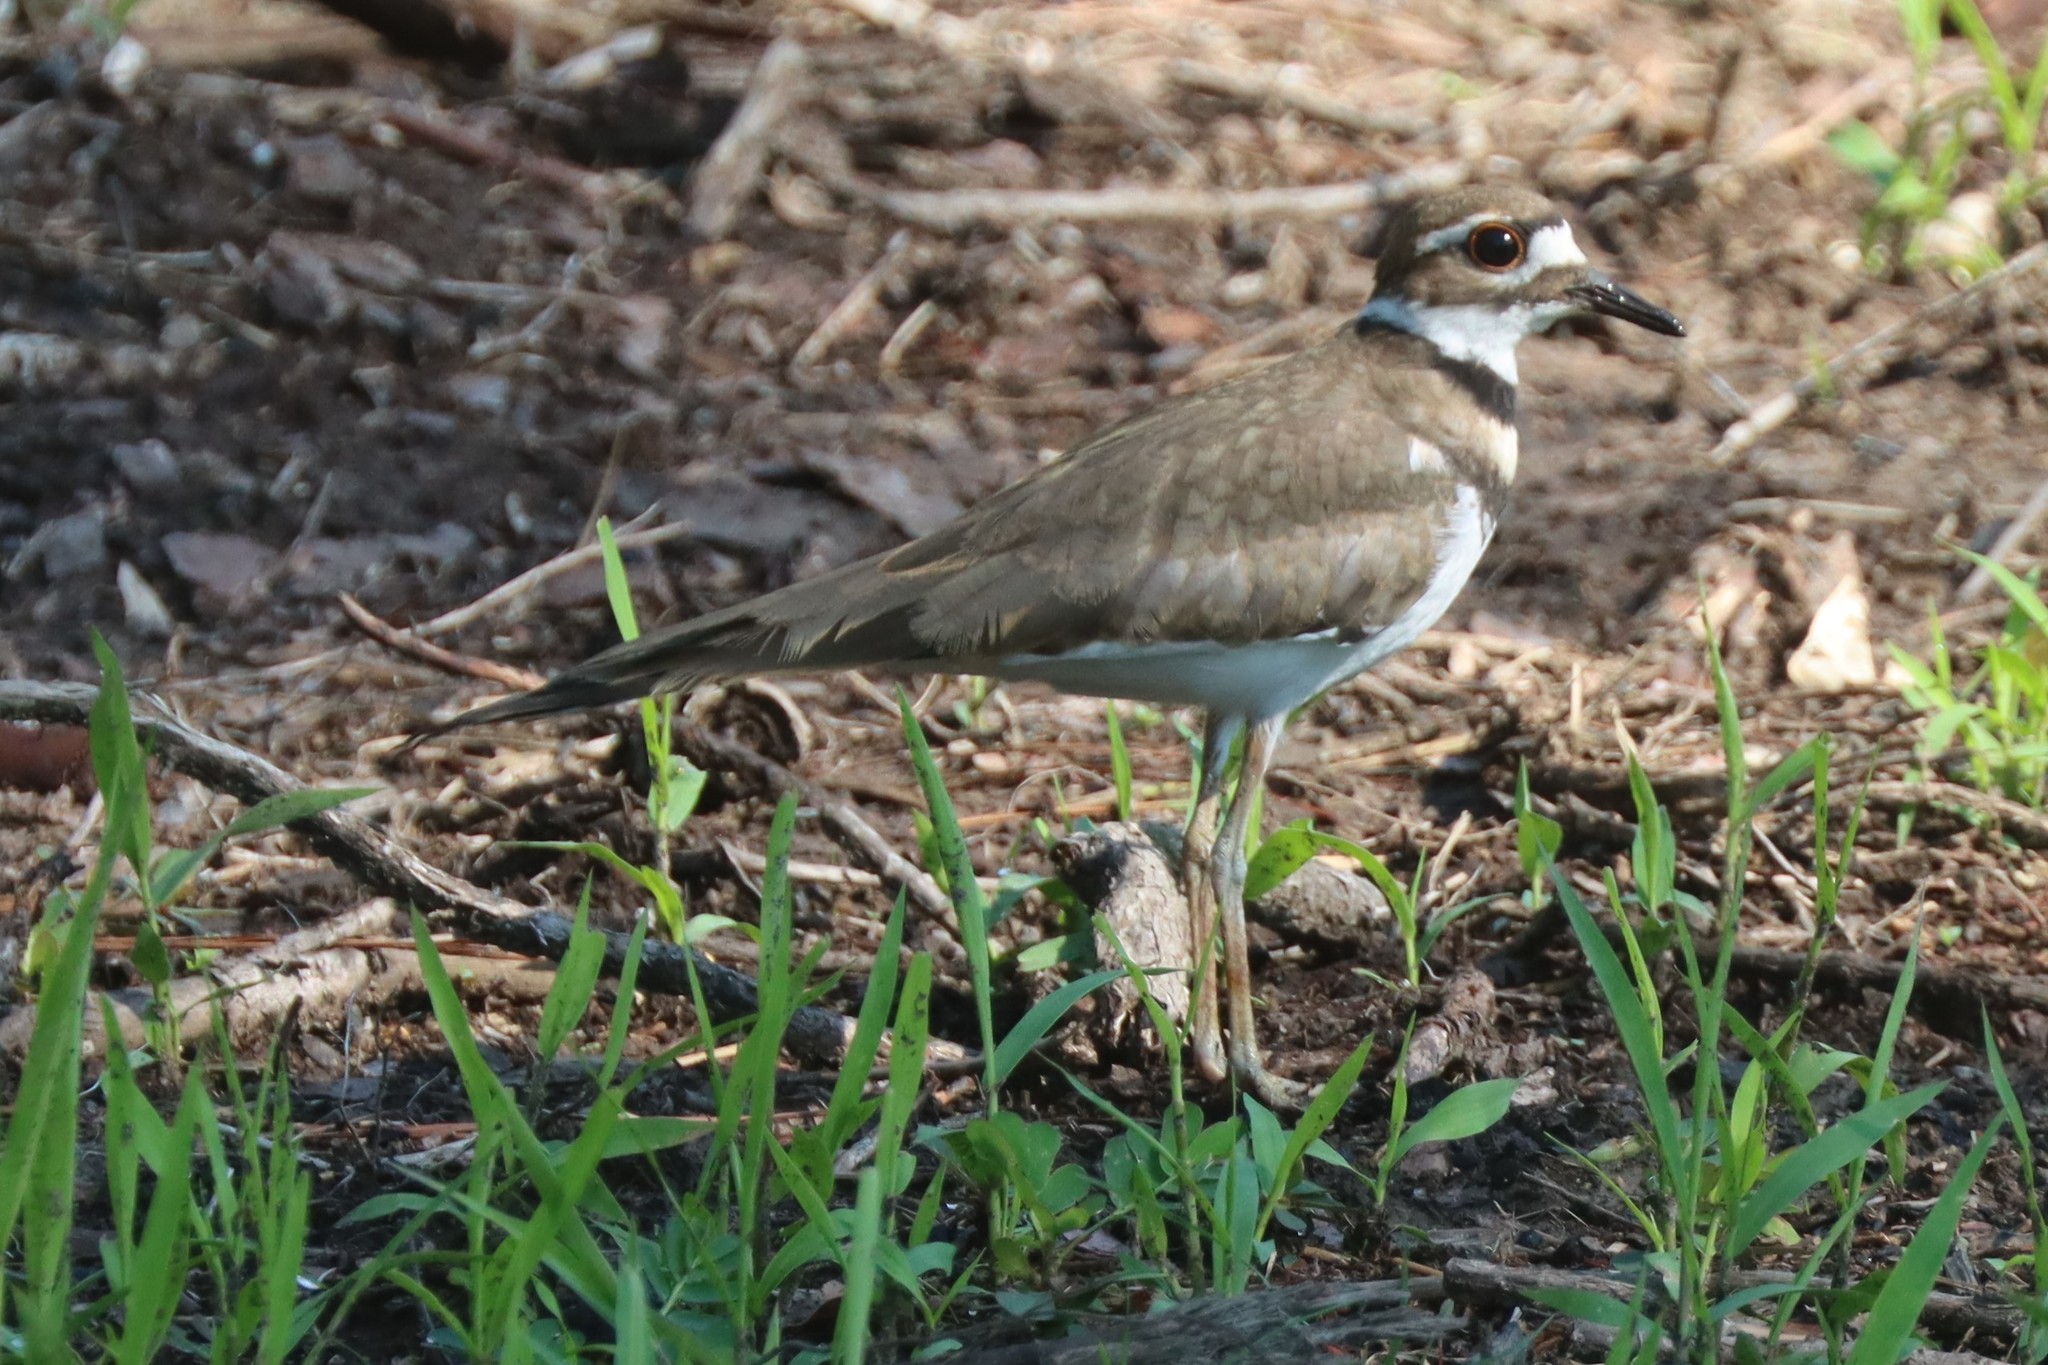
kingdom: Animalia
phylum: Chordata
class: Aves
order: Charadriiformes
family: Charadriidae
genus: Charadrius
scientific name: Charadrius vociferus
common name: Killdeer
